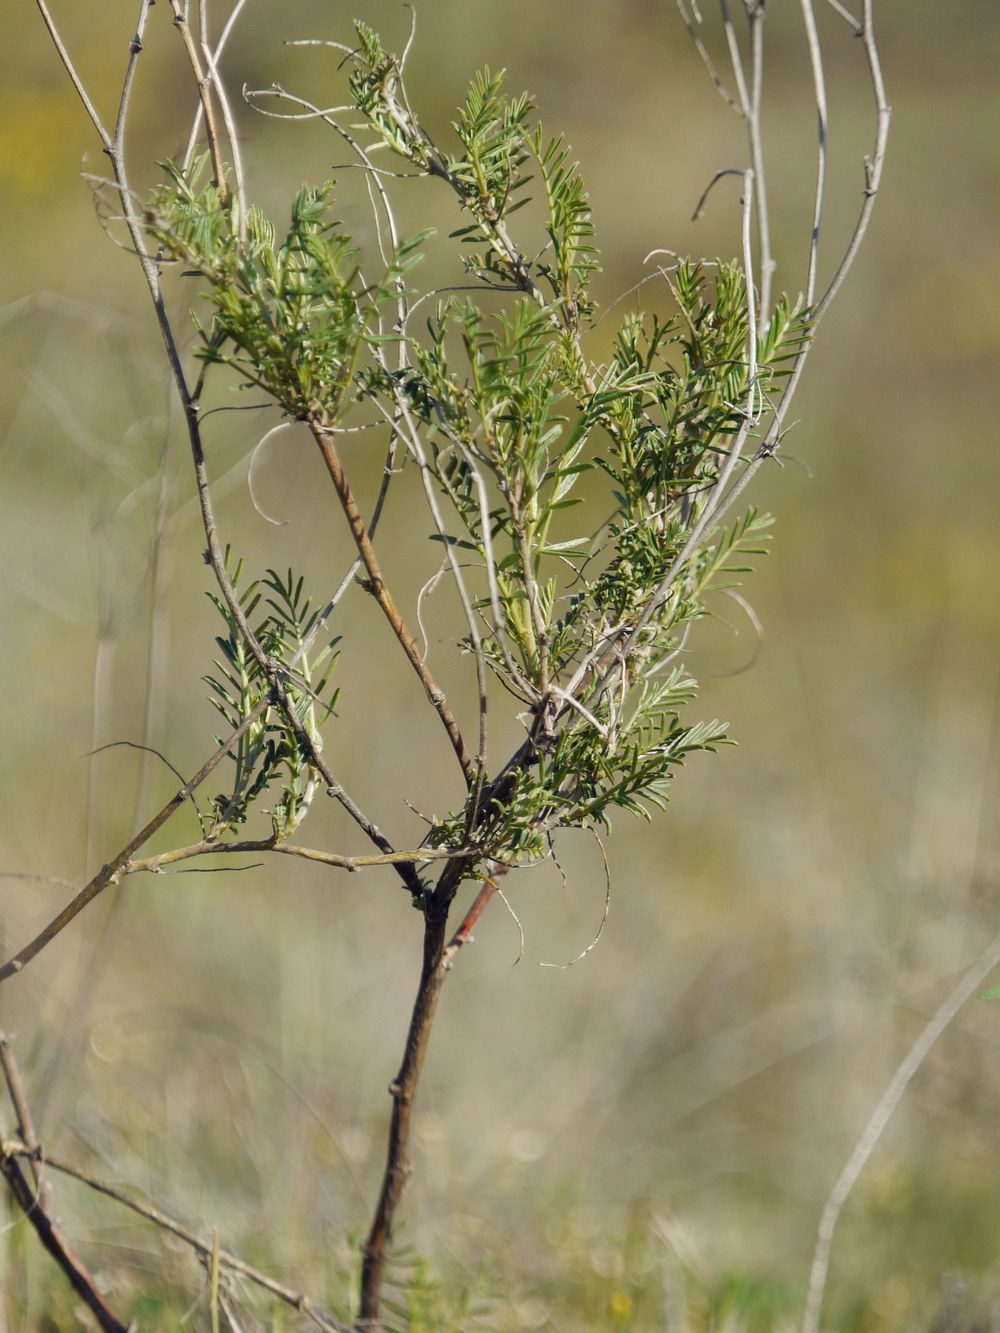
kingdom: Plantae
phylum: Tracheophyta
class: Magnoliopsida
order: Fabales
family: Fabaceae
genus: Astragalus
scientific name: Astragalus cornutus
